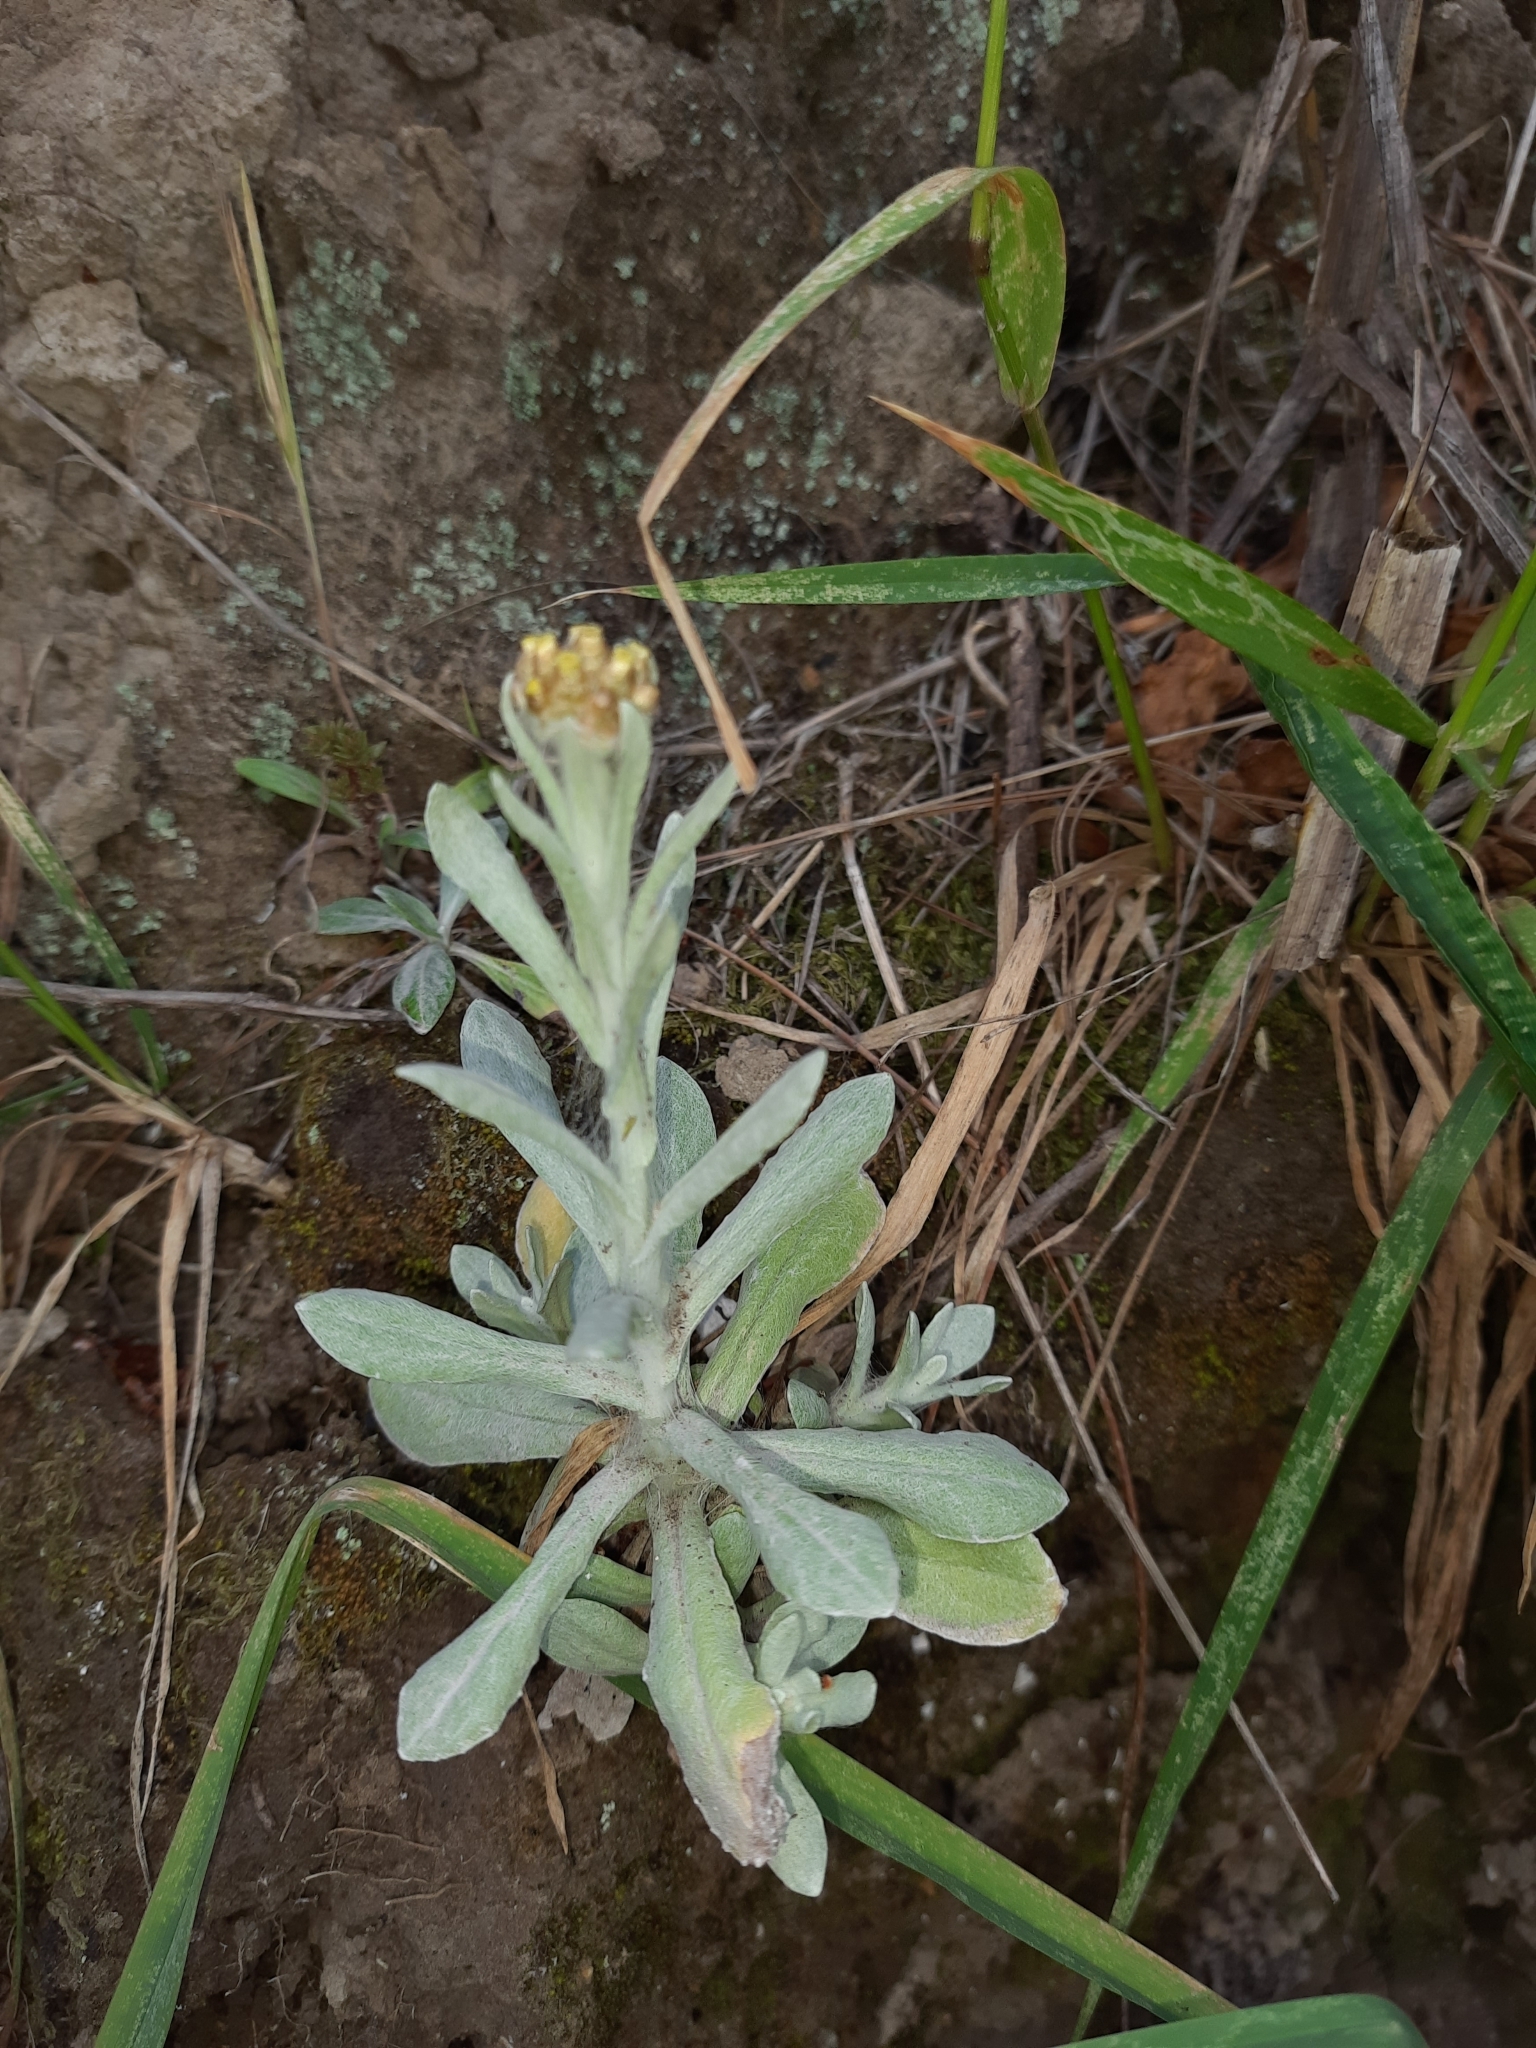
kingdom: Plantae
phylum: Tracheophyta
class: Magnoliopsida
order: Asterales
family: Asteraceae
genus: Pseudognaphalium
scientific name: Pseudognaphalium
